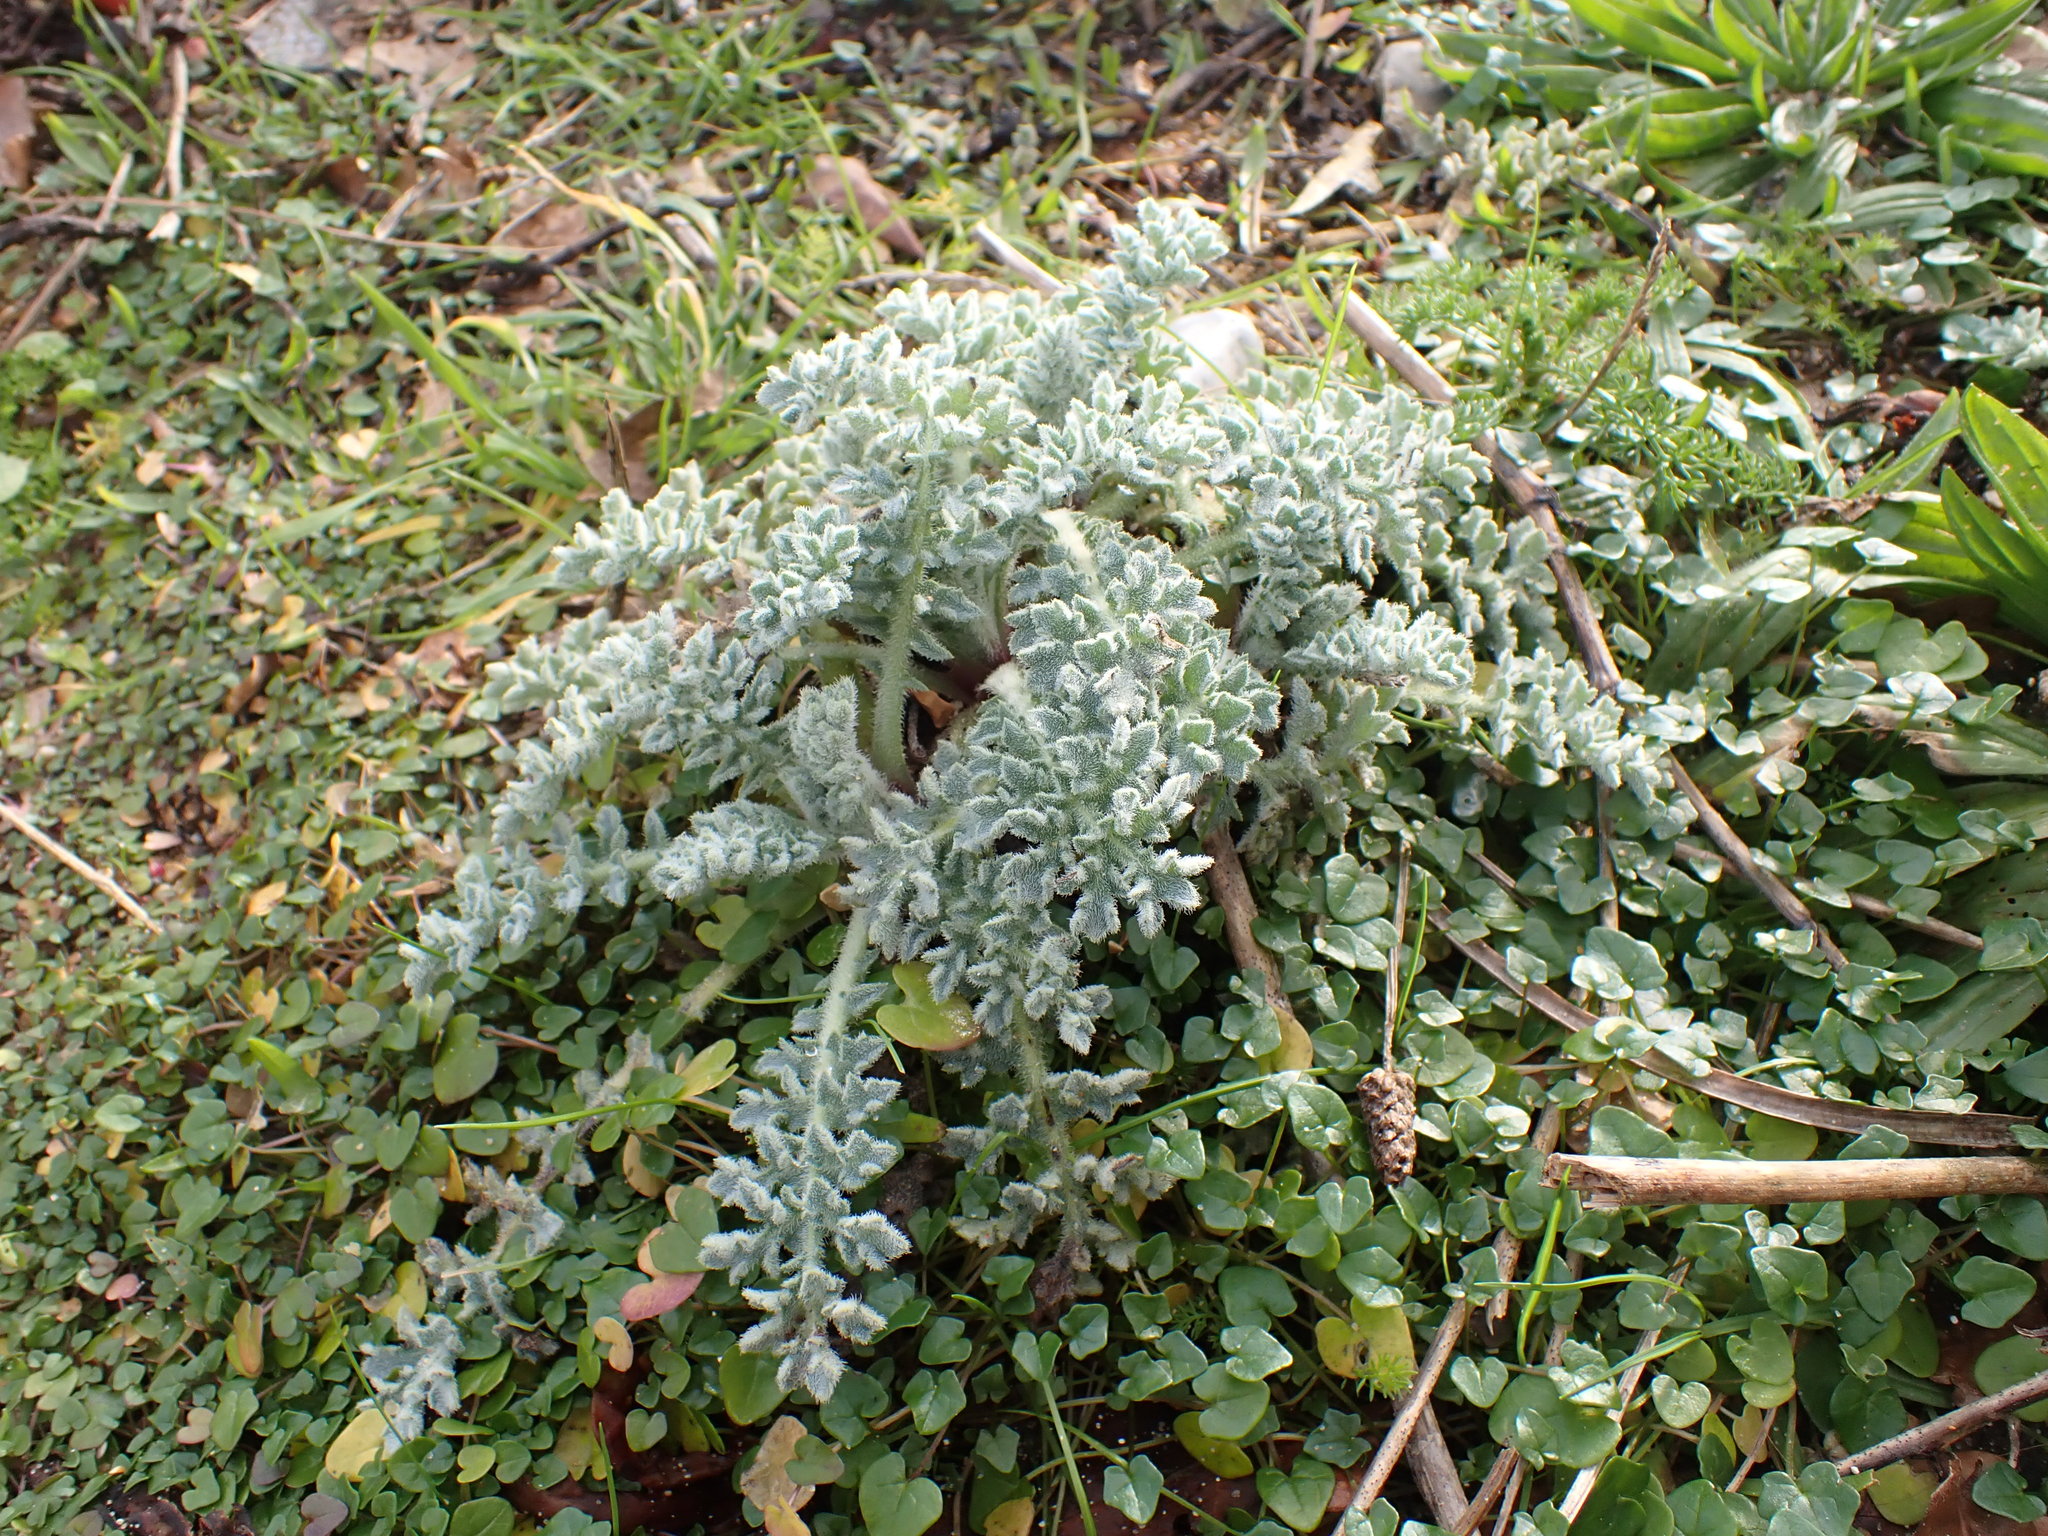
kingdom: Plantae
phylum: Tracheophyta
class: Magnoliopsida
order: Ranunculales
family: Papaveraceae
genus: Glaucium
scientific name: Glaucium flavum
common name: Yellow horned-poppy
